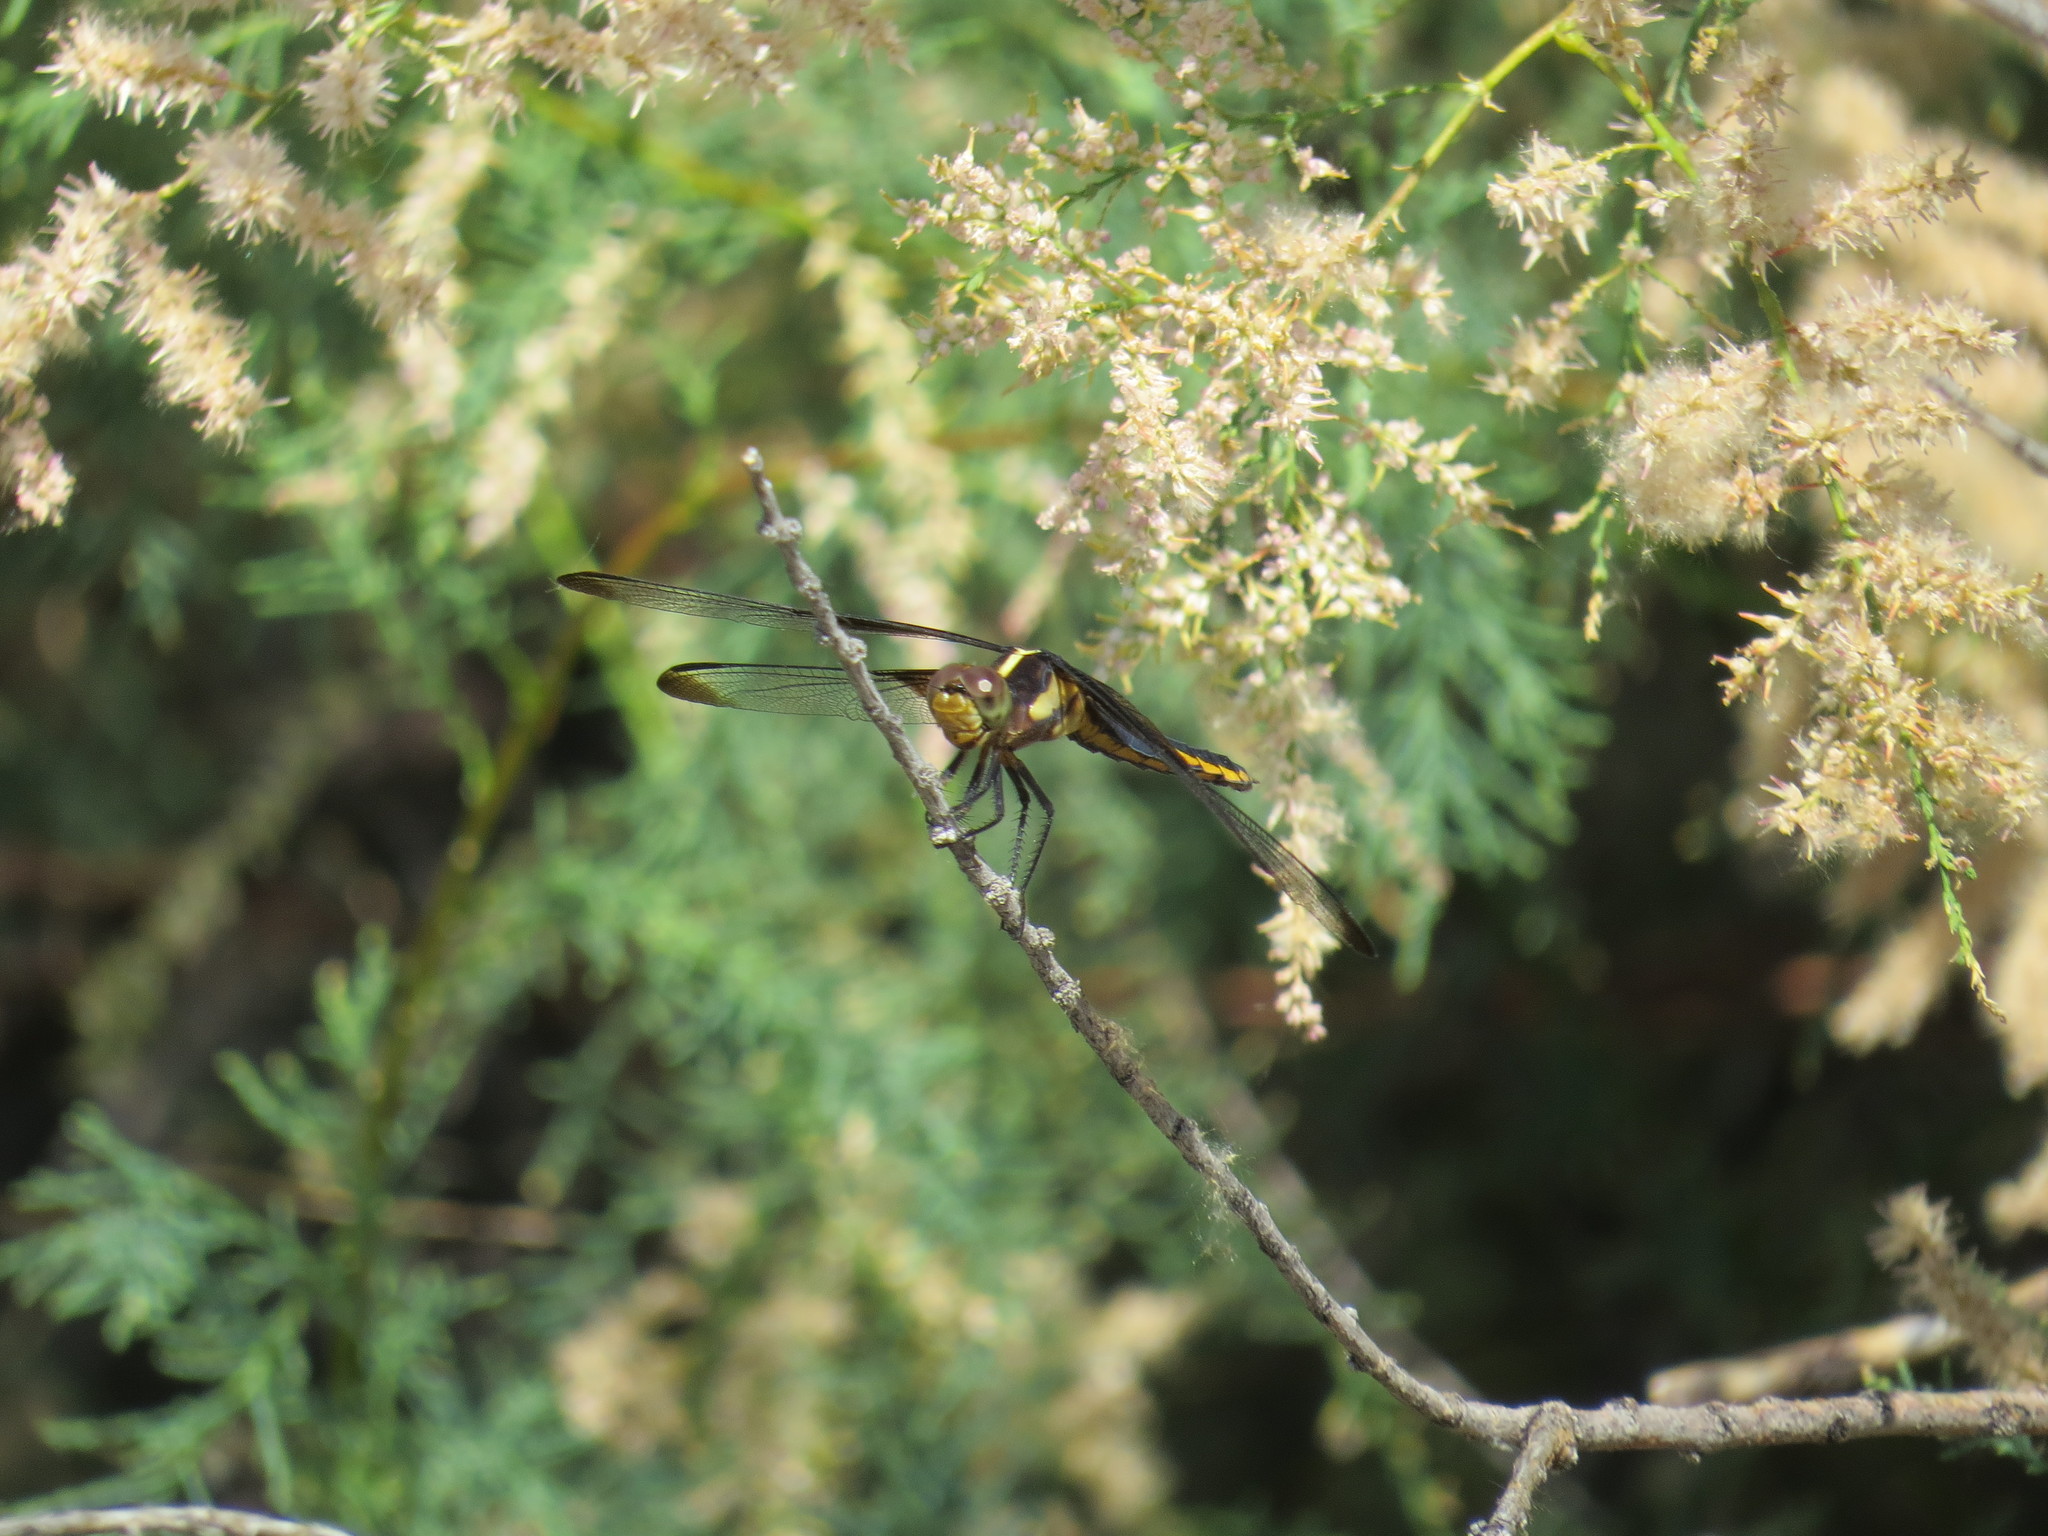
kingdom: Animalia
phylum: Arthropoda
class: Insecta
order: Odonata
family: Libellulidae
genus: Libellula
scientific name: Libellula luctuosa
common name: Widow skimmer
